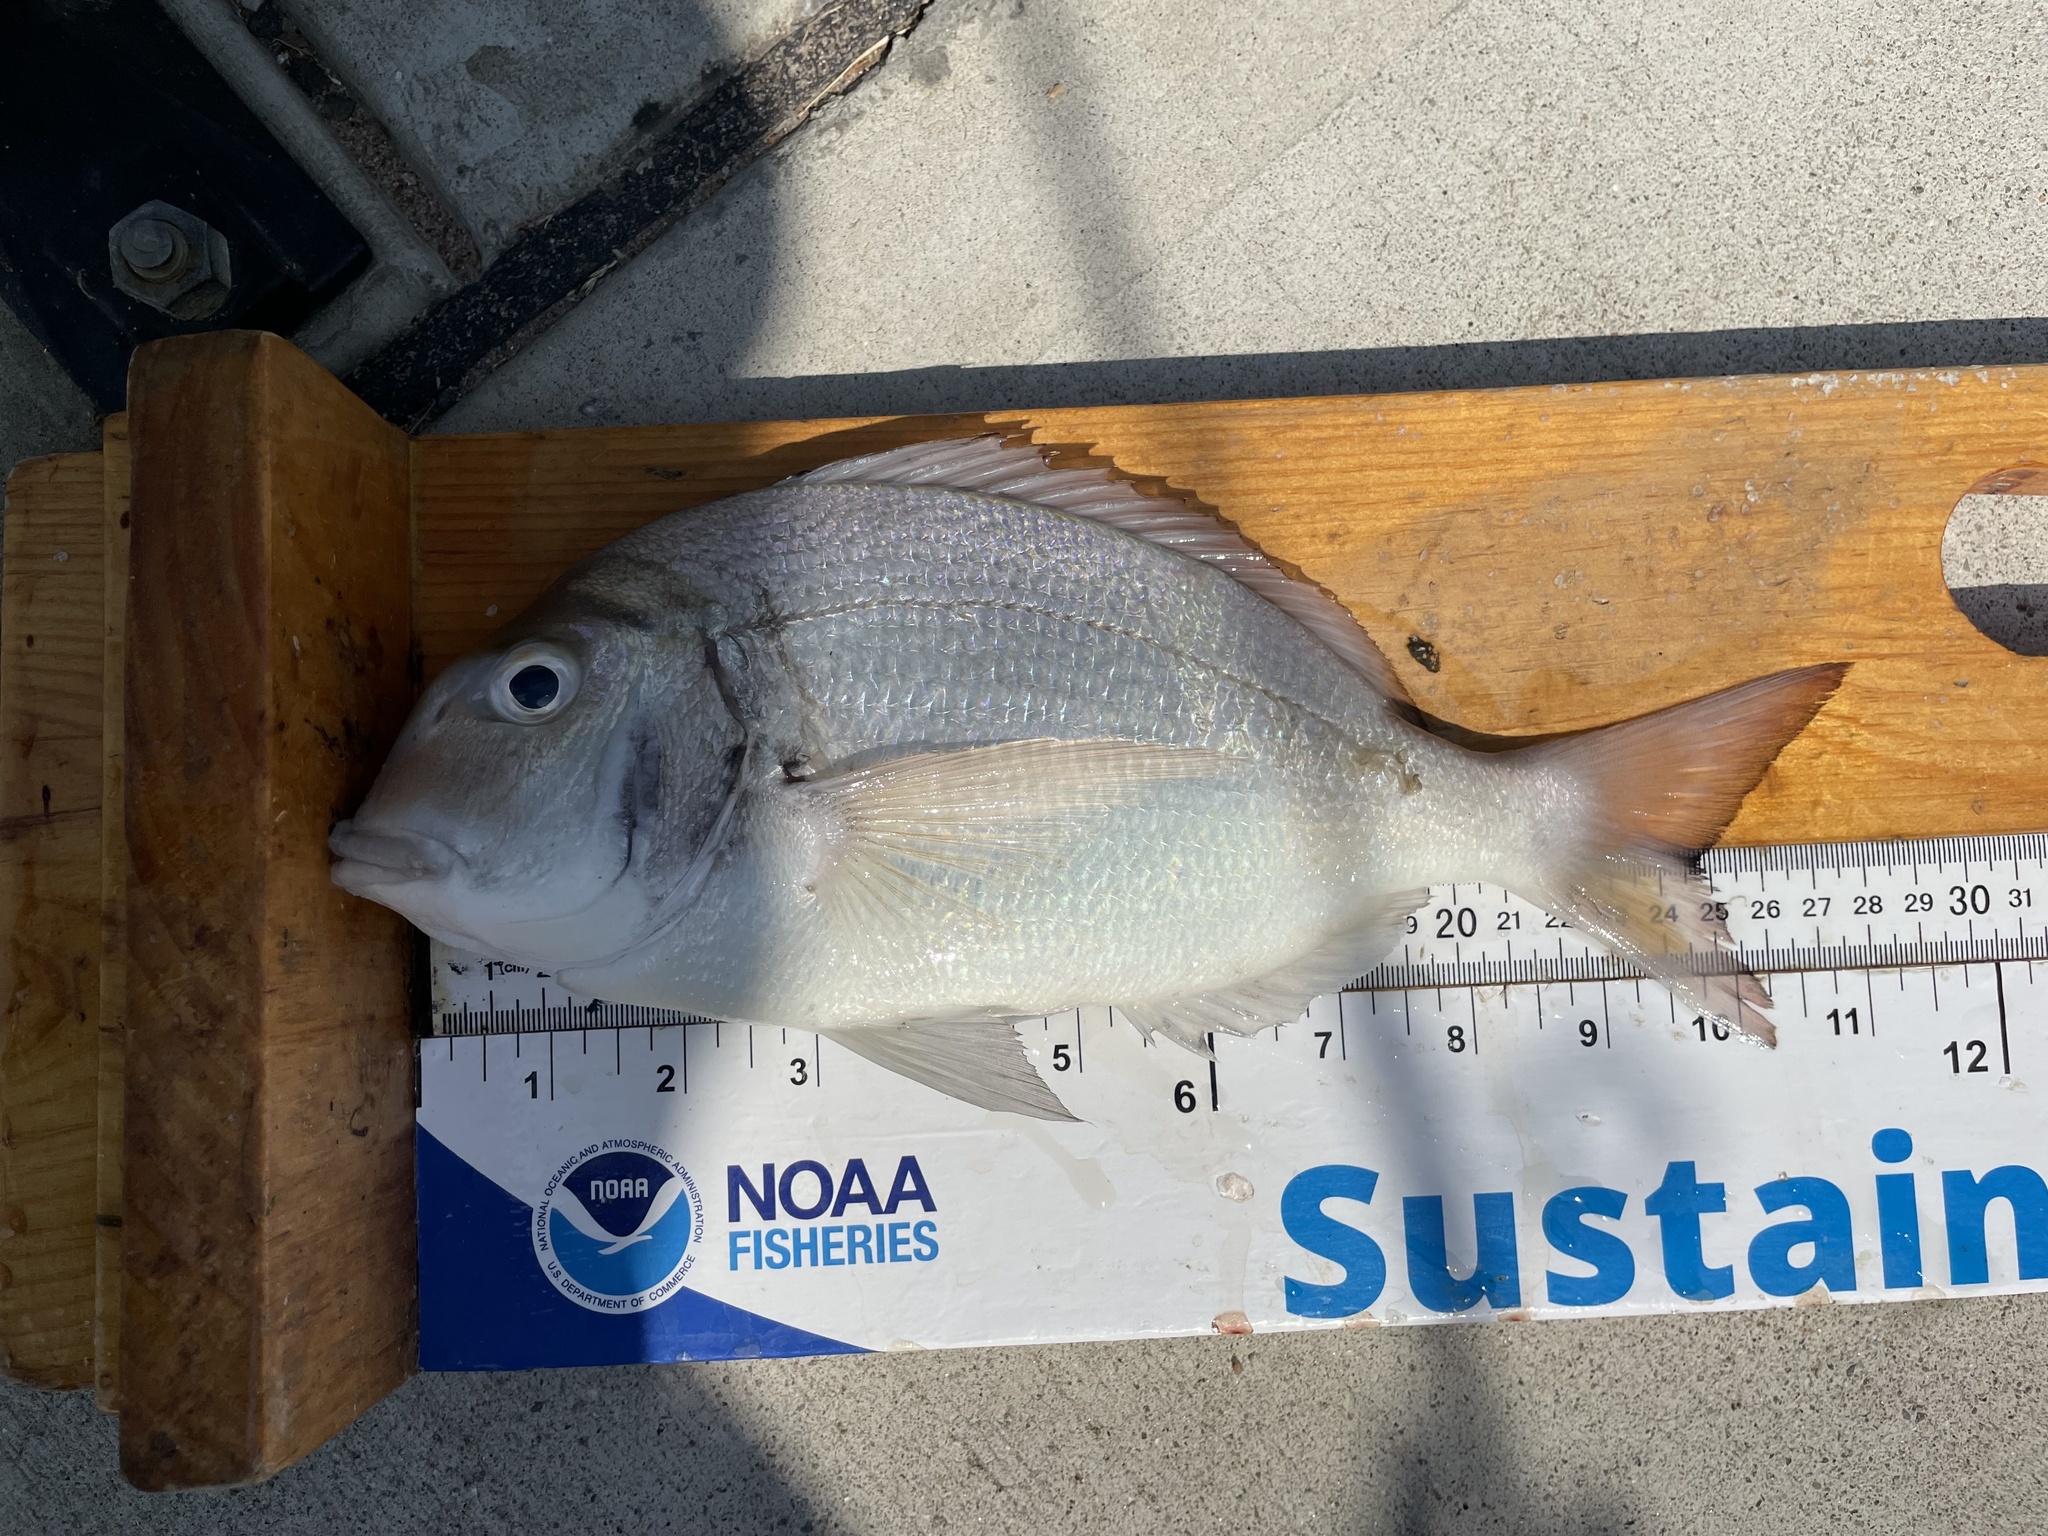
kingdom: Animalia
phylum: Chordata
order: Perciformes
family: Sparidae
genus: Stenotomus
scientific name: Stenotomus chrysops
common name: Scup
